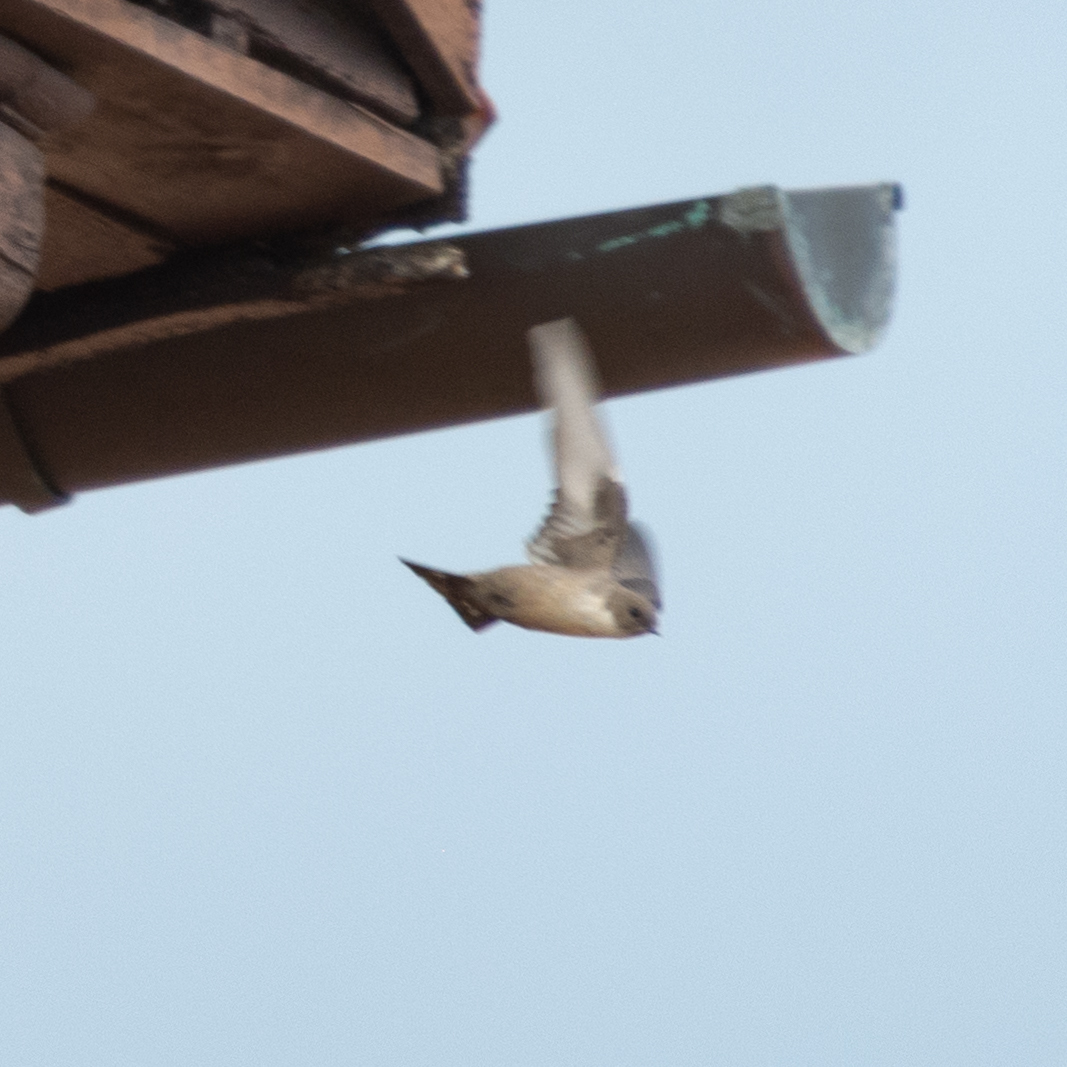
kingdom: Animalia
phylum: Chordata
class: Aves
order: Passeriformes
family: Hirundinidae
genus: Ptyonoprogne
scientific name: Ptyonoprogne rupestris
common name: Eurasian crag martin
